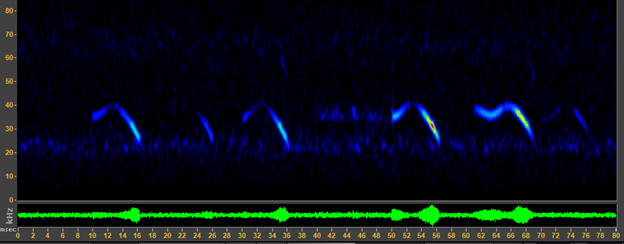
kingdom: Animalia
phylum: Chordata
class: Mammalia
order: Chiroptera
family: Vespertilionidae
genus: Corynorhinus
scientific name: Corynorhinus townsendii
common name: Townsend's big-eared bat
